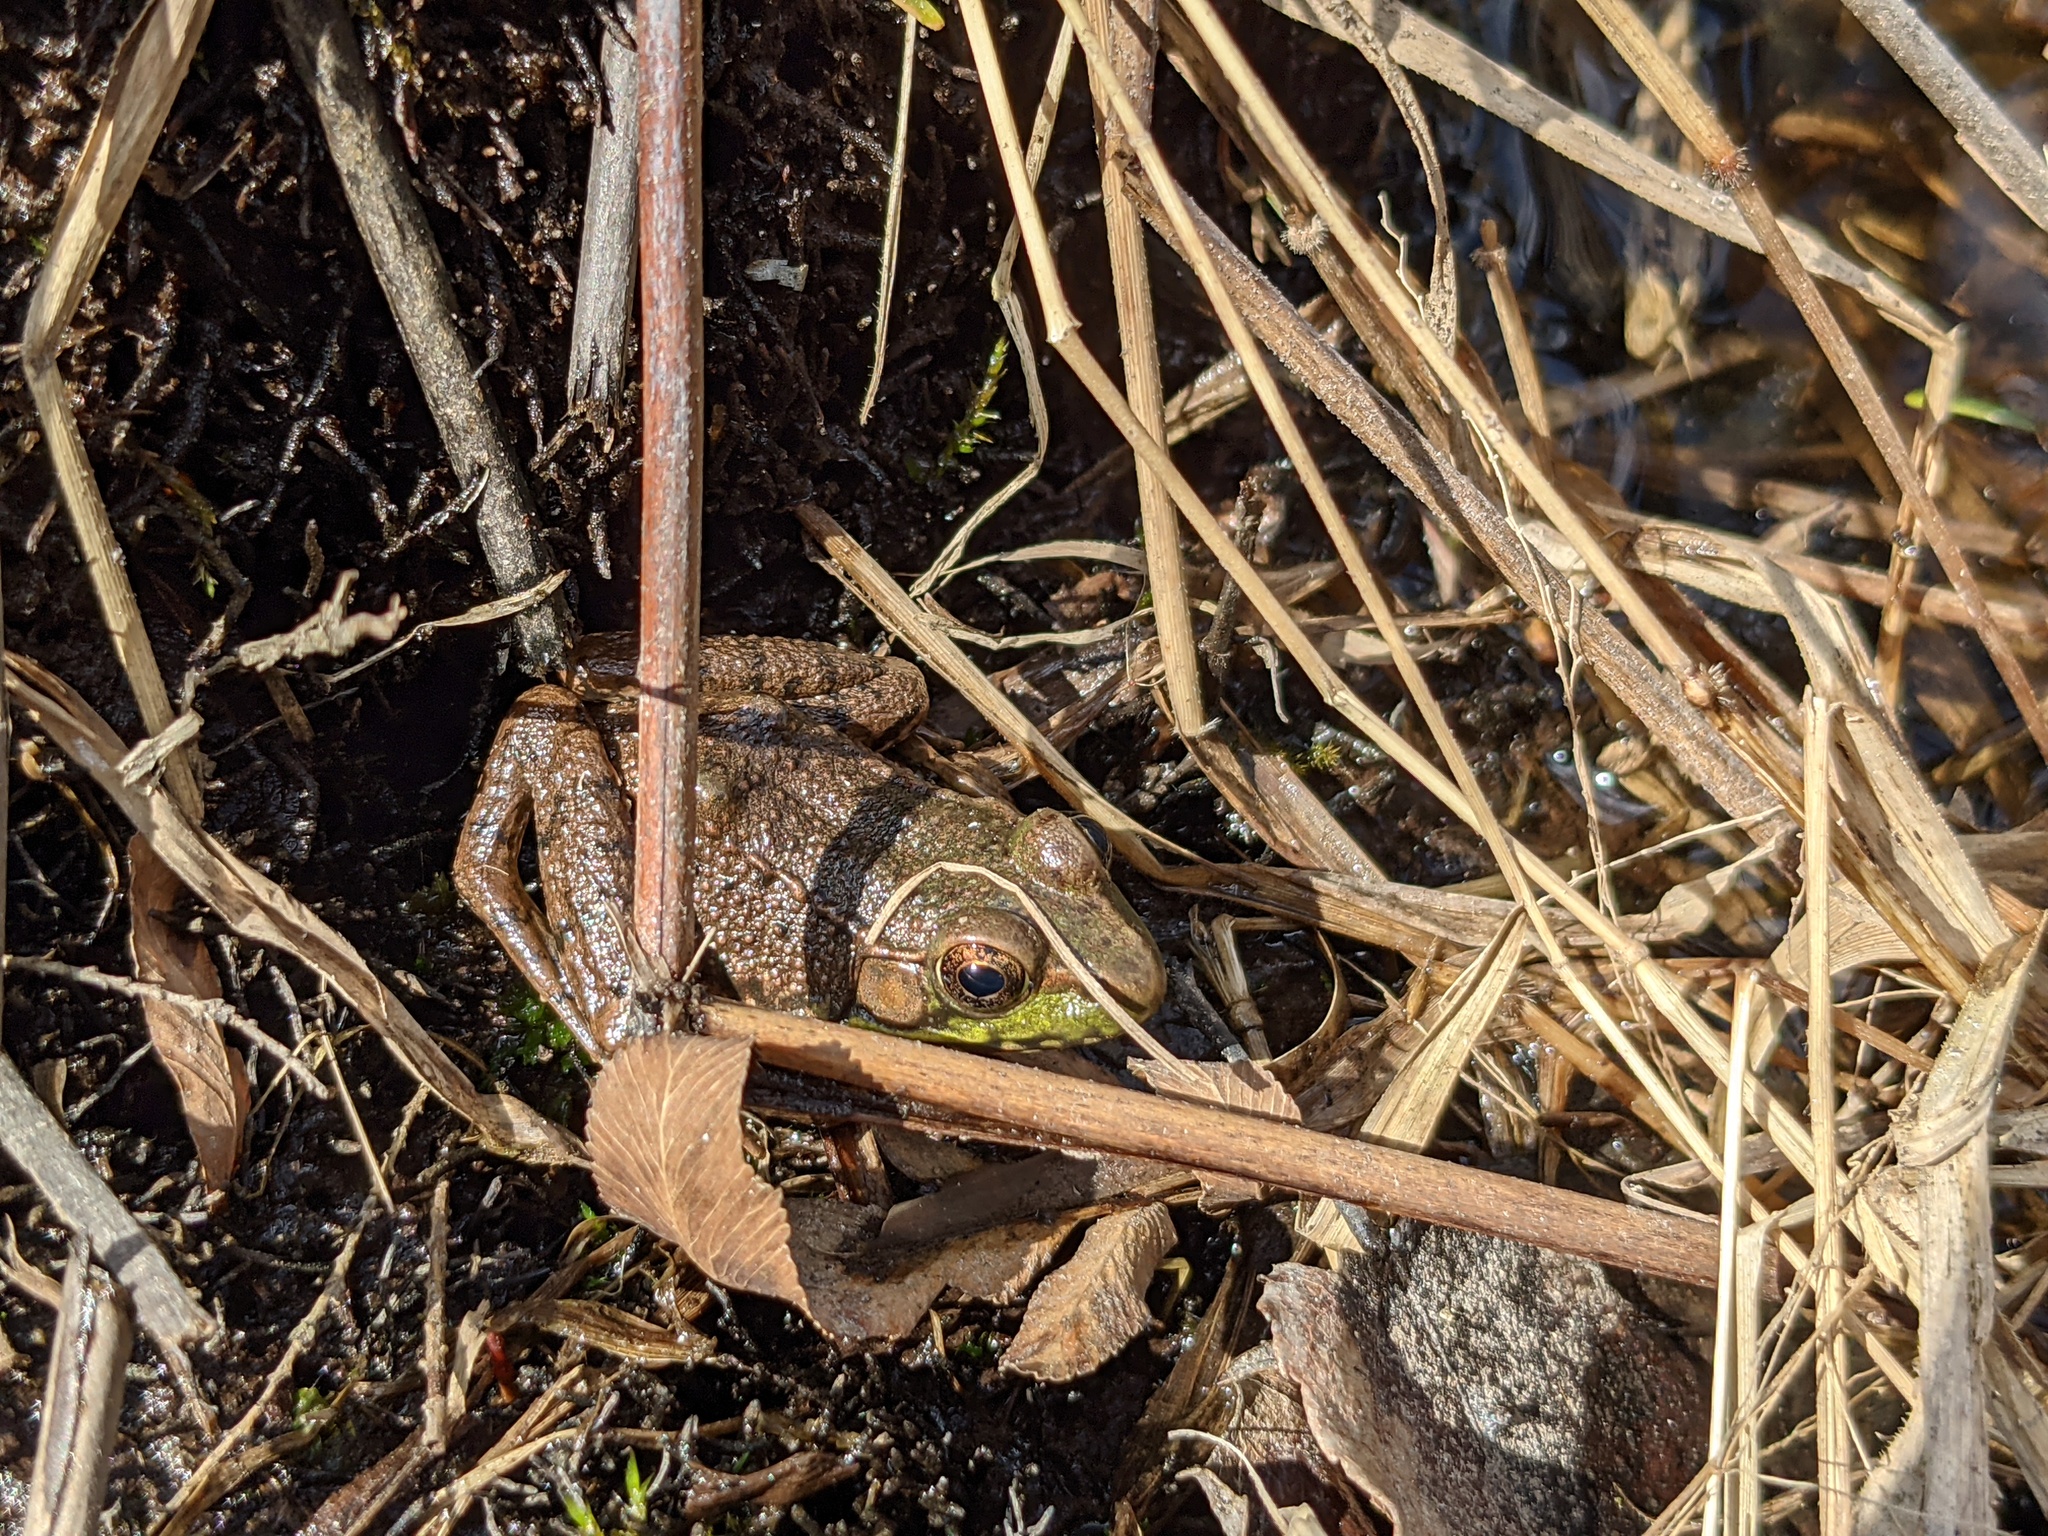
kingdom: Animalia
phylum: Chordata
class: Amphibia
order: Anura
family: Ranidae
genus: Lithobates
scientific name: Lithobates clamitans
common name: Green frog
